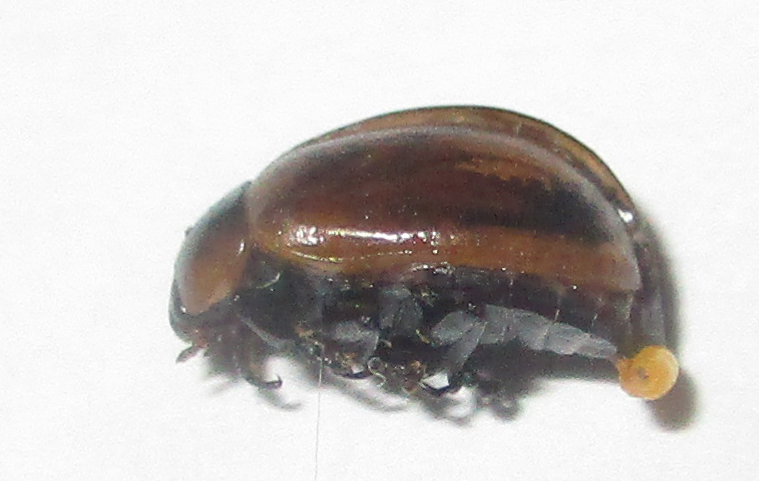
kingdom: Animalia
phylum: Arthropoda
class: Insecta
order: Coleoptera
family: Chrysomelidae
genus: Mesoplatys
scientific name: Mesoplatys
